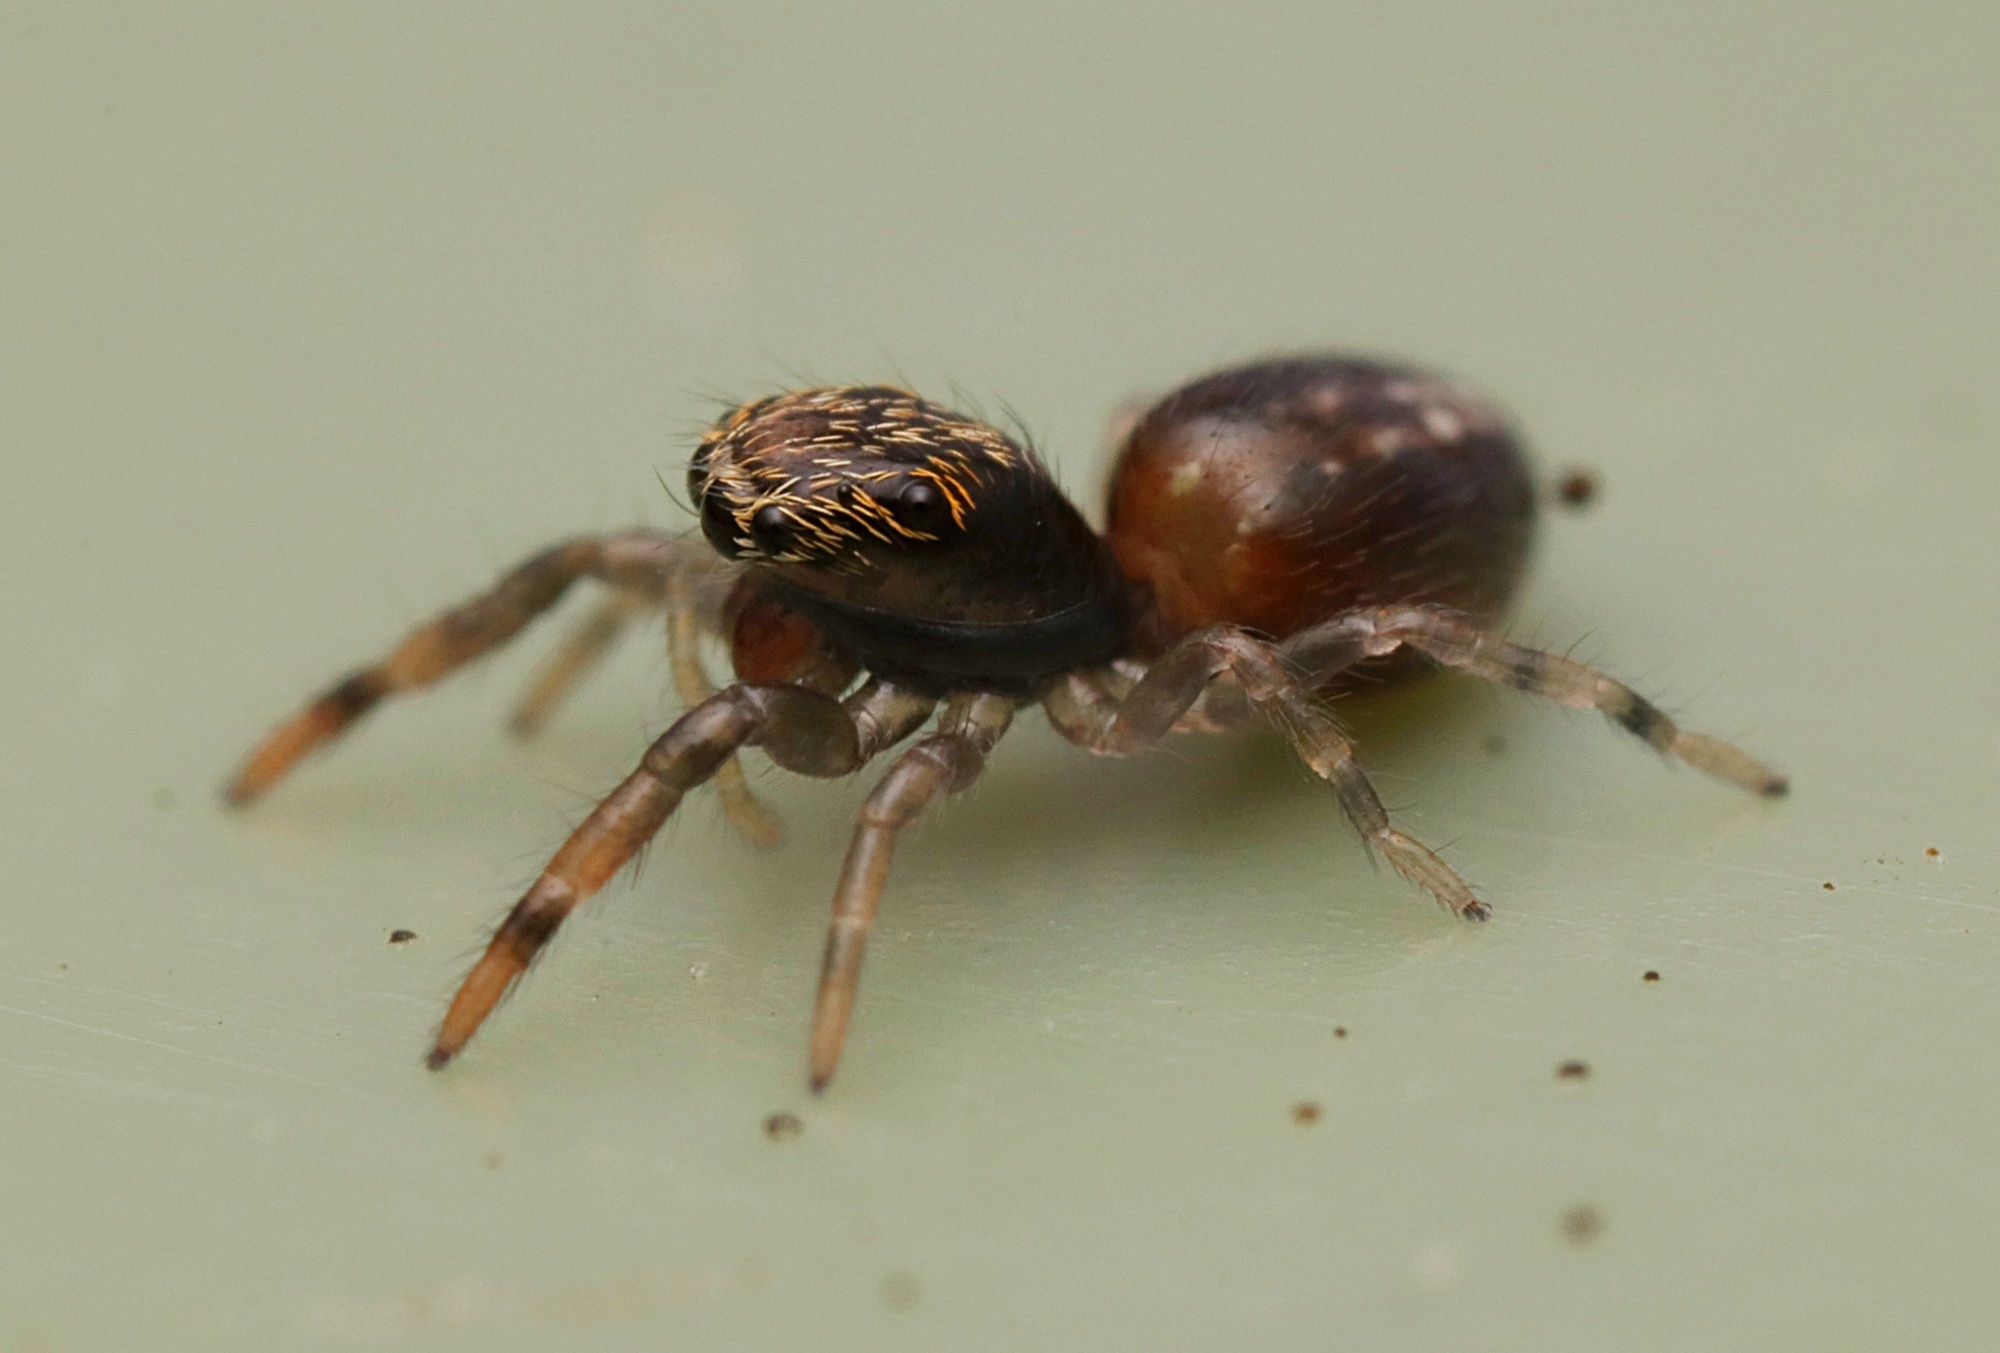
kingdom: Animalia
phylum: Arthropoda
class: Arachnida
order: Araneae
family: Salticidae
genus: Trite
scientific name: Trite planiceps
